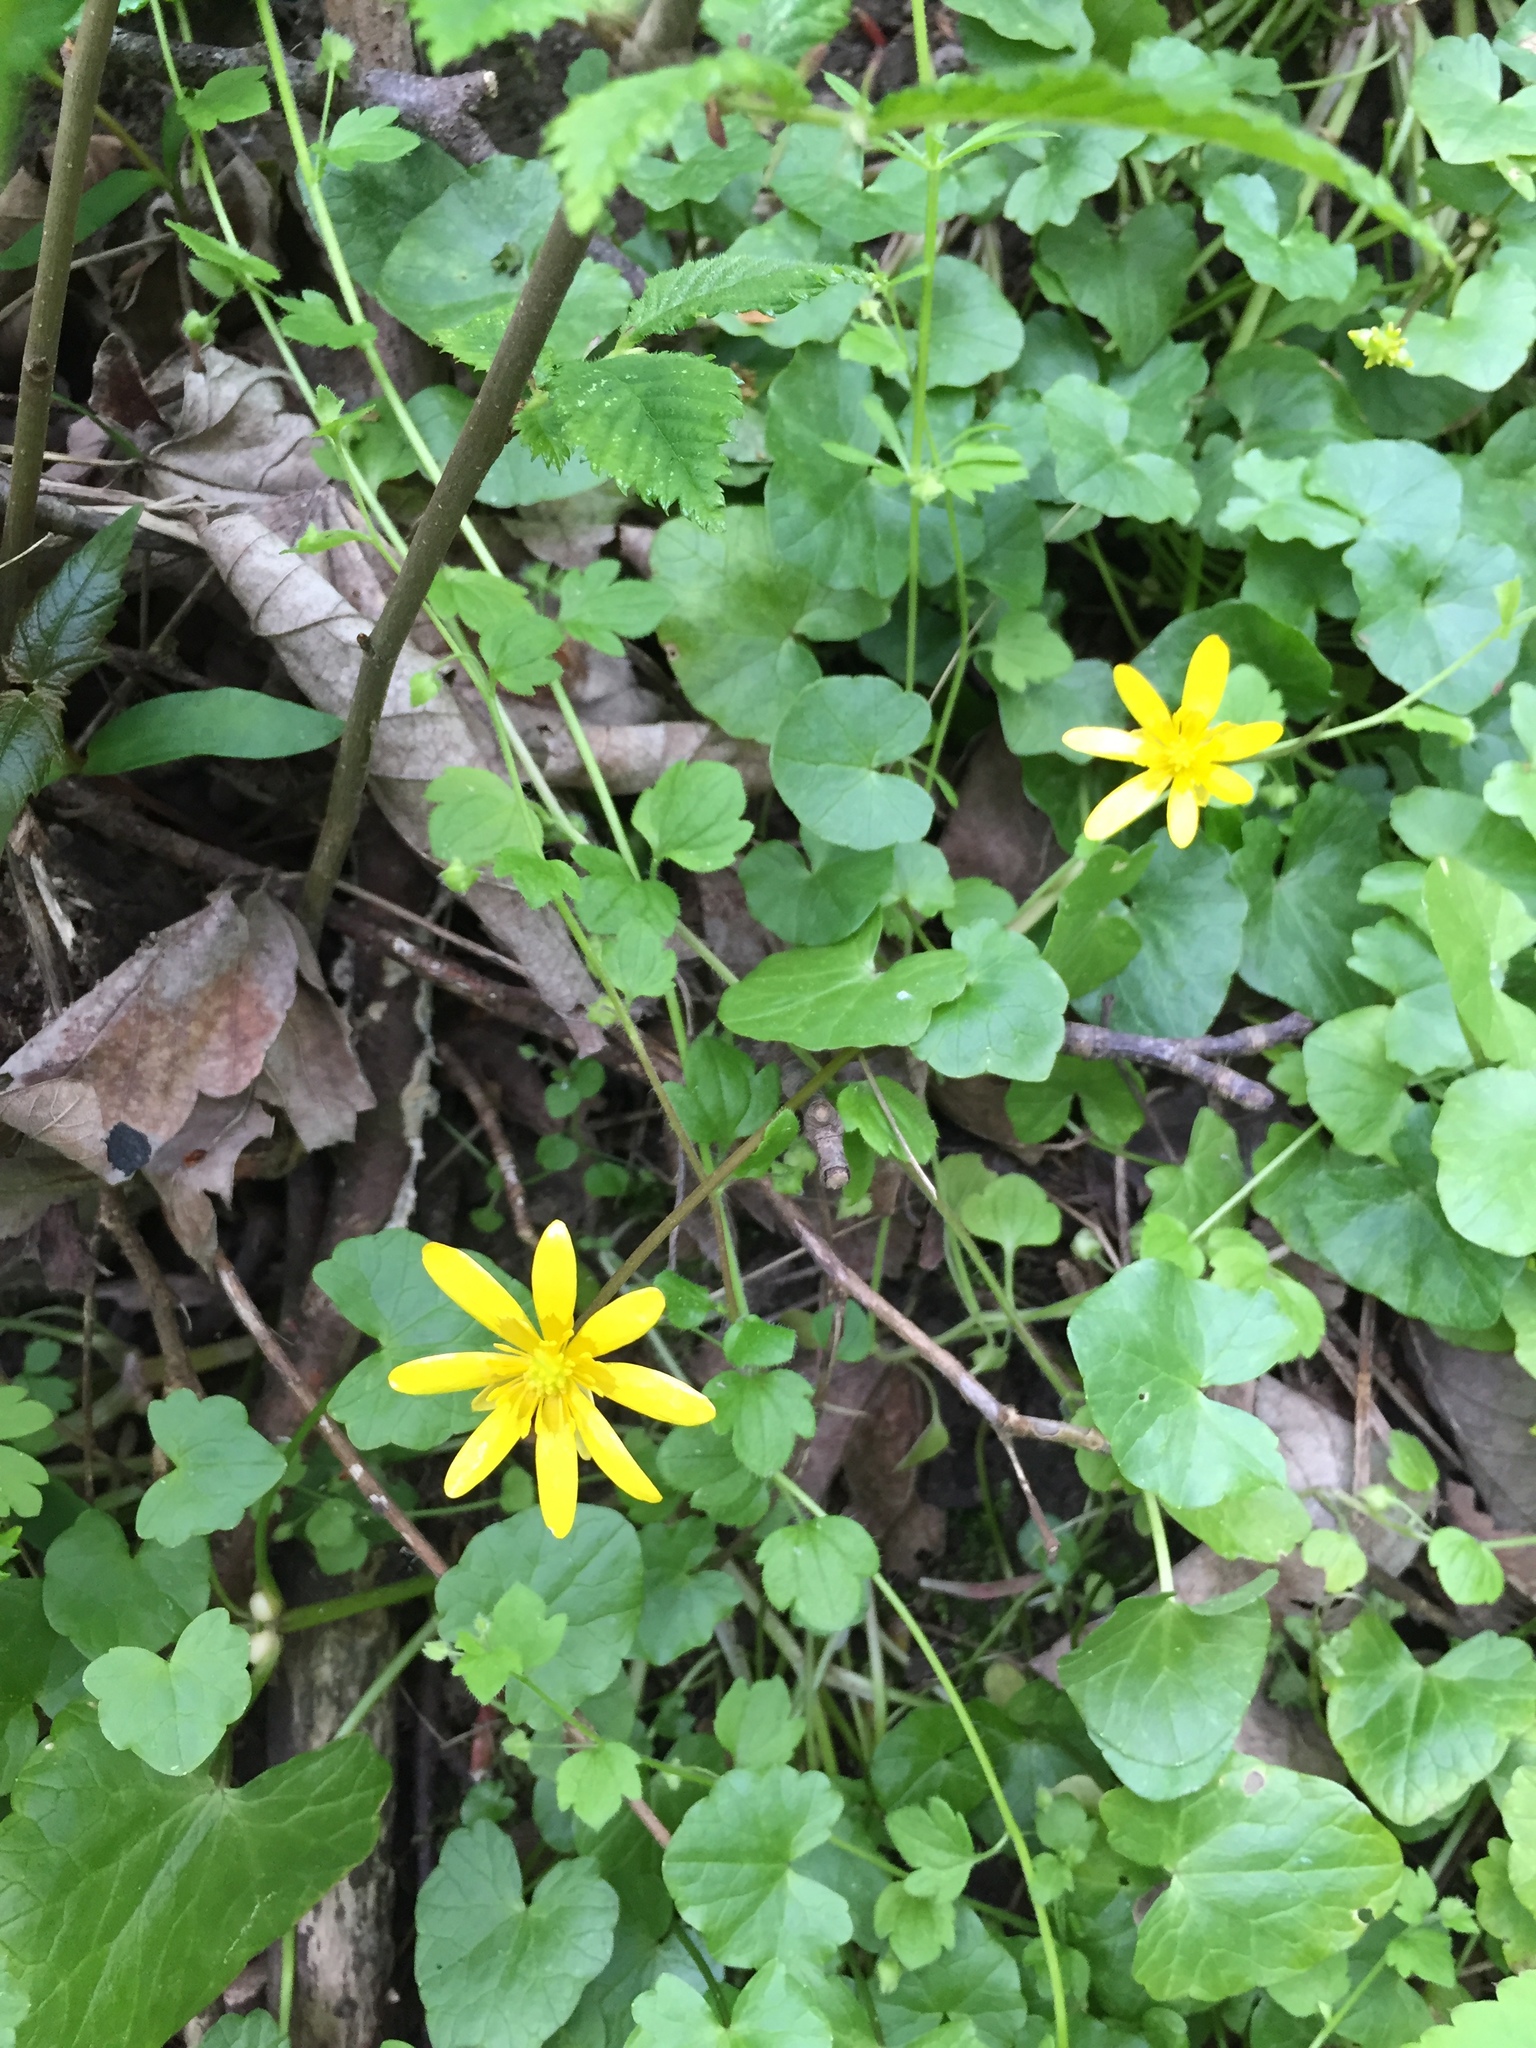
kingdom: Plantae
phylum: Tracheophyta
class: Magnoliopsida
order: Ranunculales
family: Ranunculaceae
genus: Ficaria
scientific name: Ficaria verna
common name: Lesser celandine
